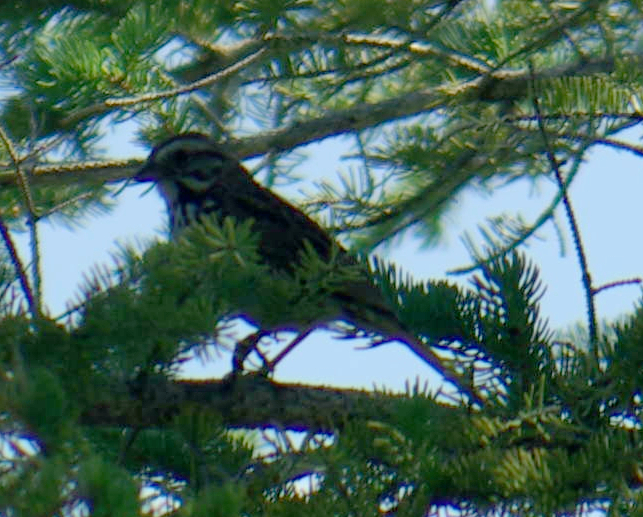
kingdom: Animalia
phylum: Chordata
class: Aves
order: Passeriformes
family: Passerellidae
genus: Melospiza
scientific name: Melospiza melodia
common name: Song sparrow
